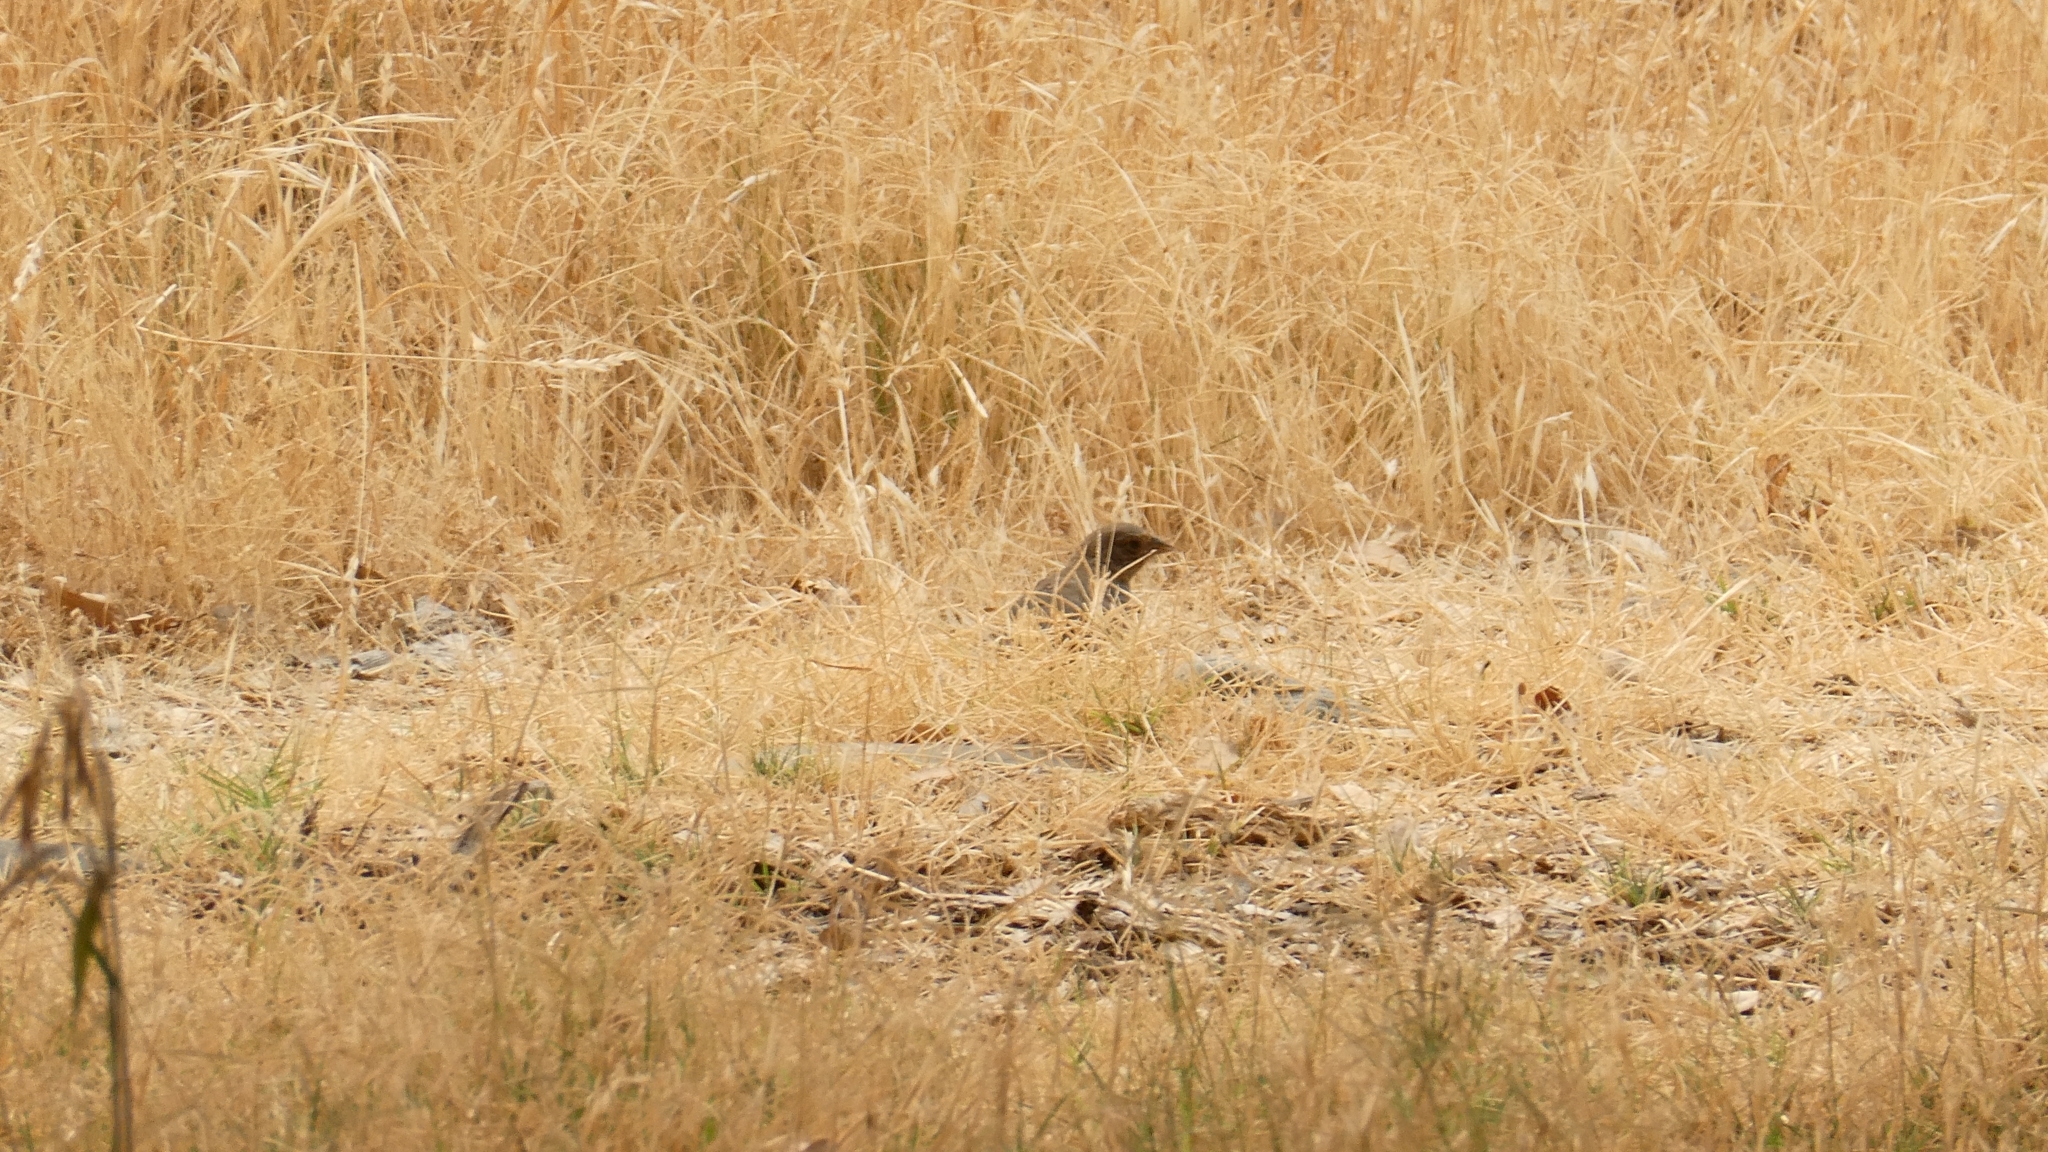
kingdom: Animalia
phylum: Chordata
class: Aves
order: Passeriformes
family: Passerellidae
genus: Melozone
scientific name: Melozone crissalis
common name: California towhee
